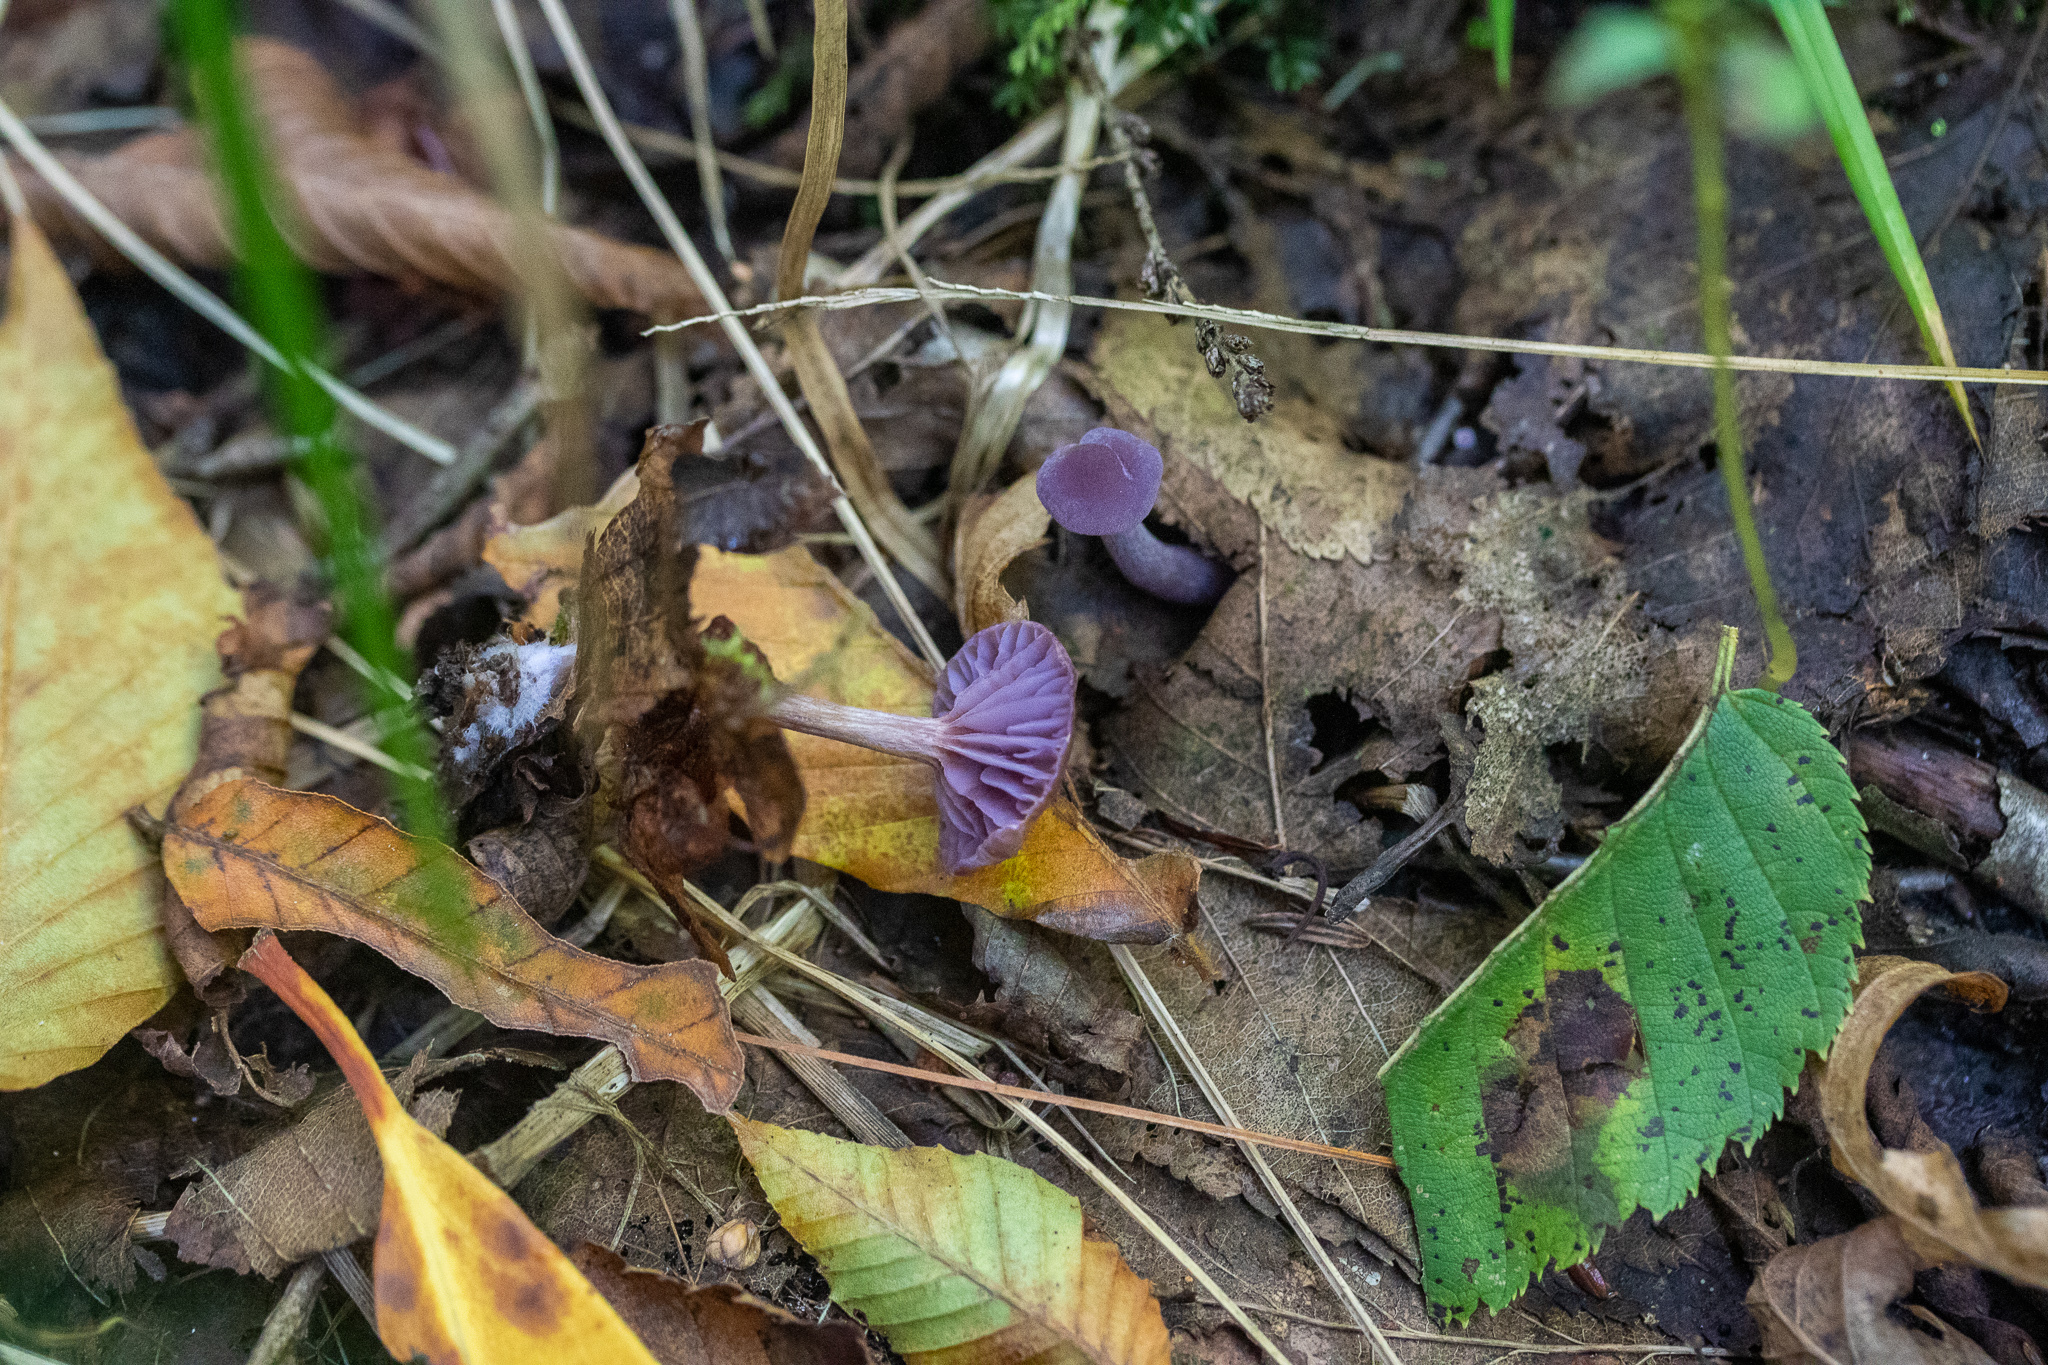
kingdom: Fungi
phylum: Basidiomycota
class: Agaricomycetes
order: Agaricales
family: Hydnangiaceae
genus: Laccaria
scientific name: Laccaria amethystina
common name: Amethyst deceiver
